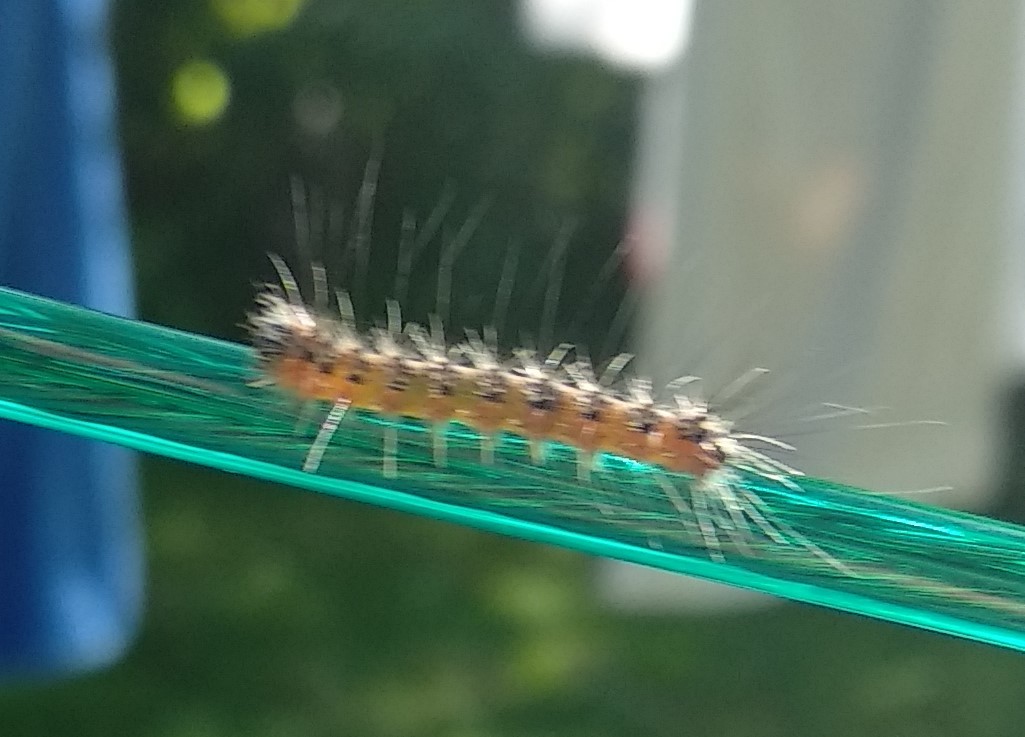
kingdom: Animalia
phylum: Arthropoda
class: Insecta
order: Lepidoptera
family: Erebidae
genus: Hyphantria
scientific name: Hyphantria cunea
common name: American white moth
